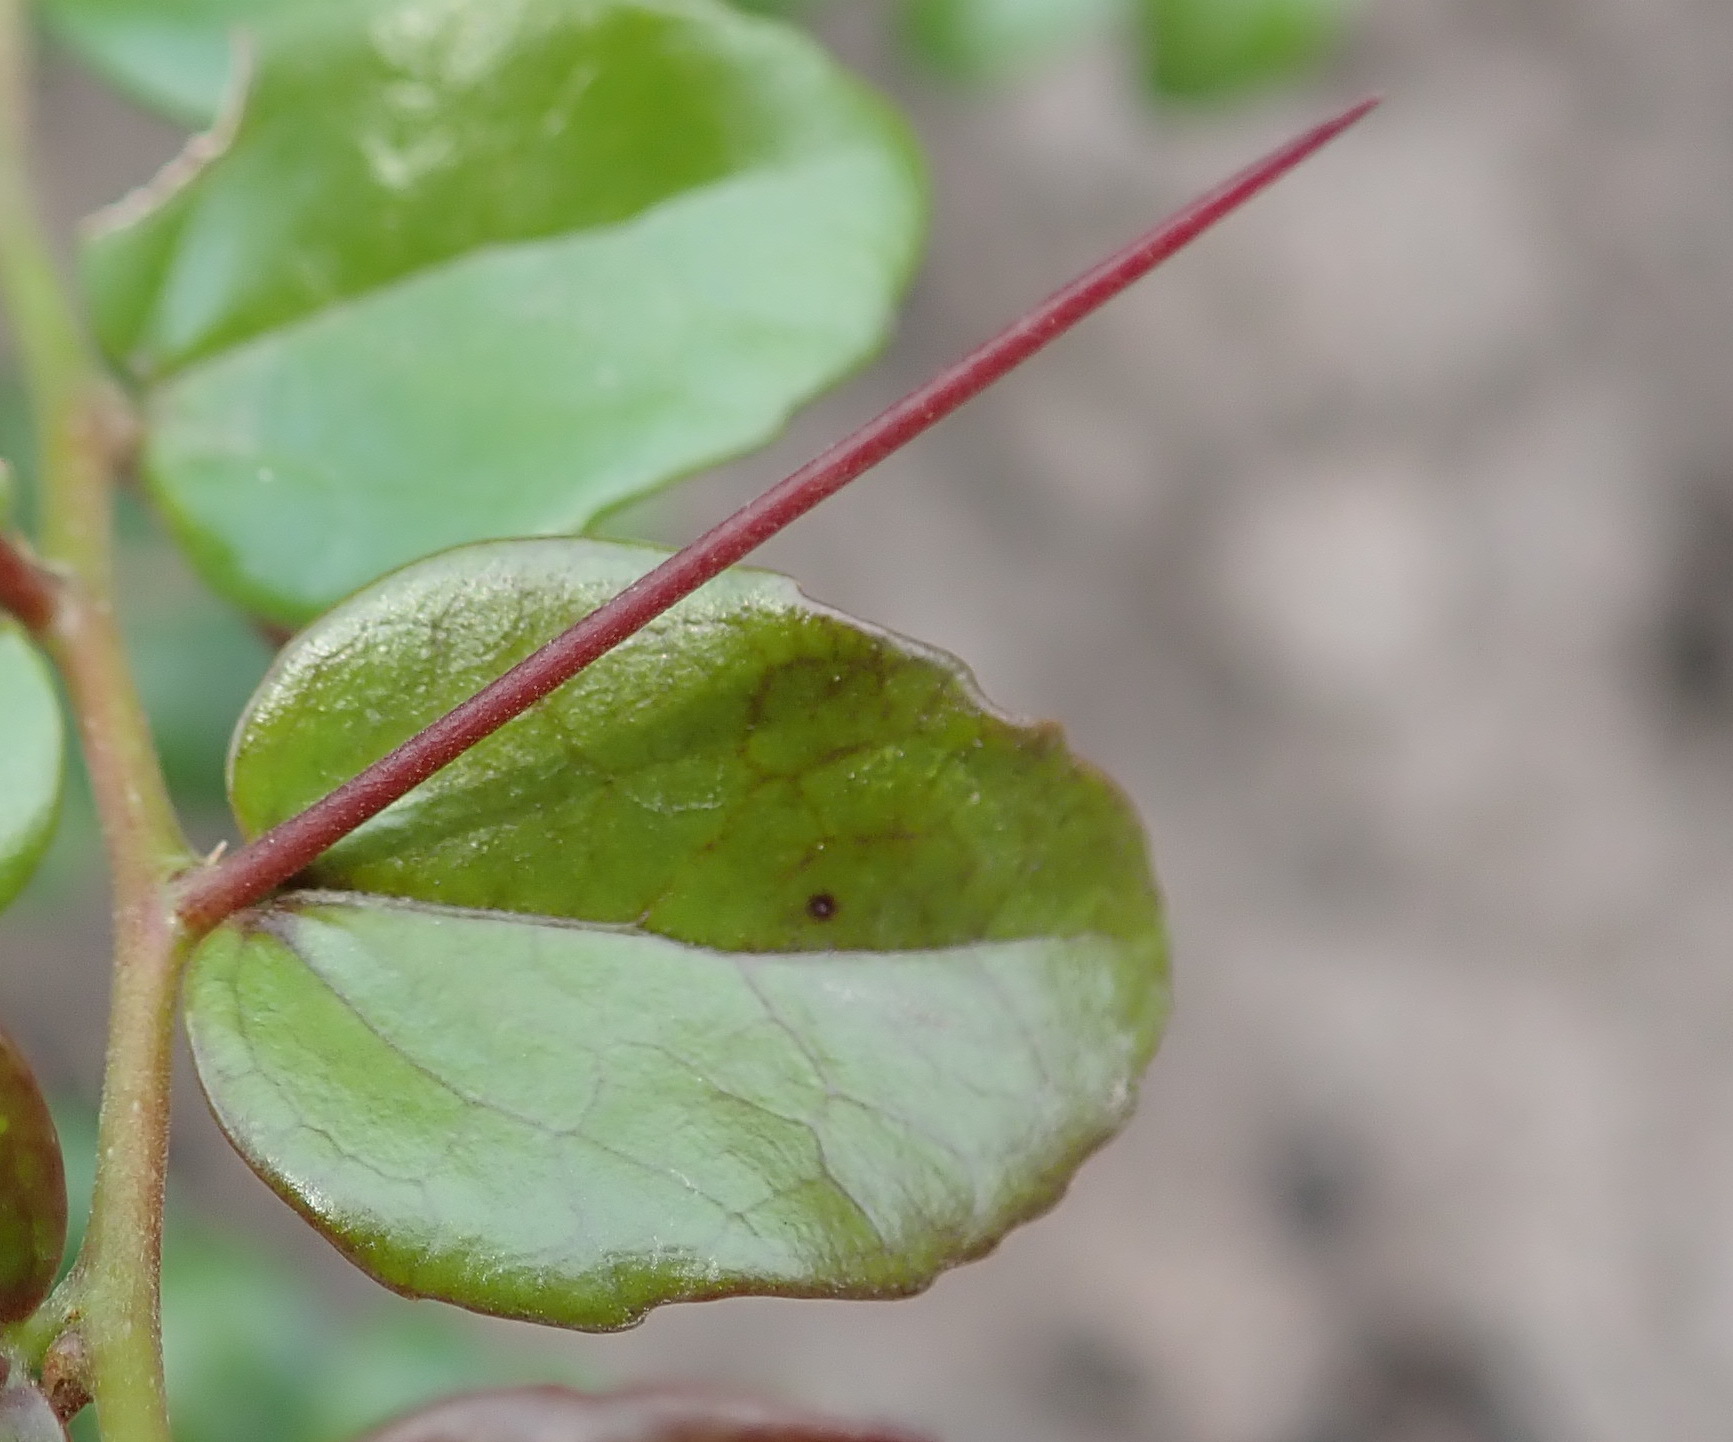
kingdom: Plantae
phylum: Tracheophyta
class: Magnoliopsida
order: Malpighiales
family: Salicaceae
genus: Dovyalis
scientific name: Dovyalis rhamnoides
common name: Sourberry
